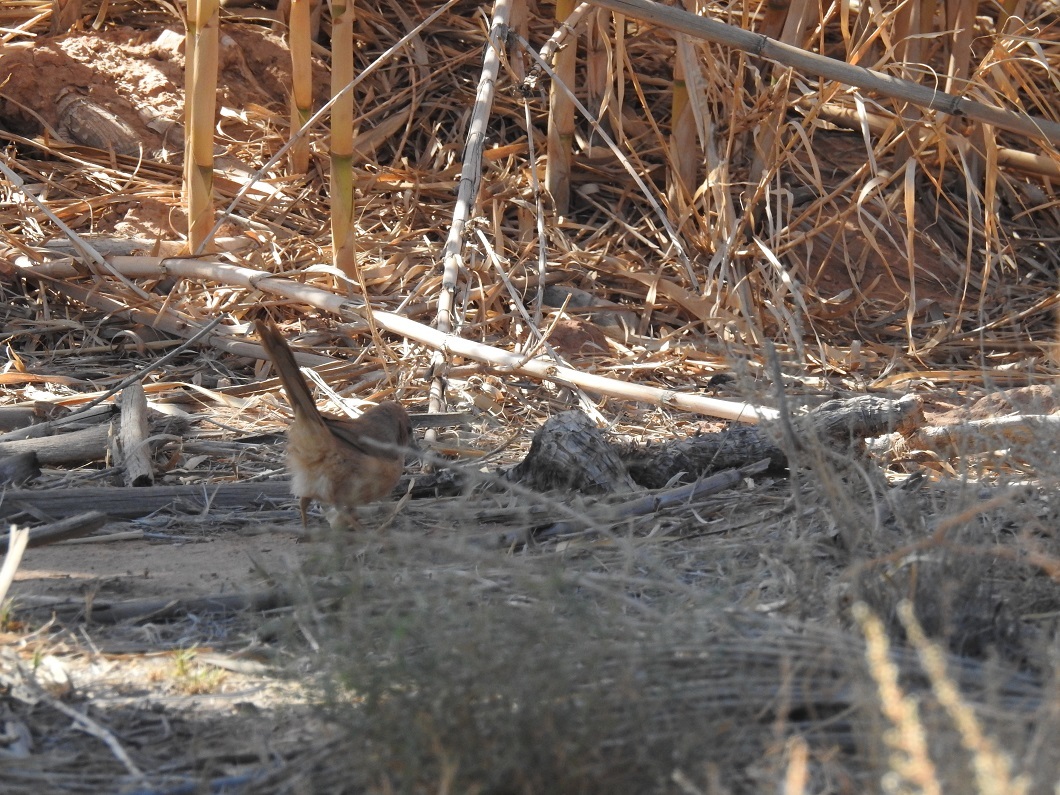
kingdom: Animalia
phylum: Chordata
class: Aves
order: Passeriformes
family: Leiothrichidae
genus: Turdoides
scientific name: Turdoides fulva
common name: Fulvous babbler
